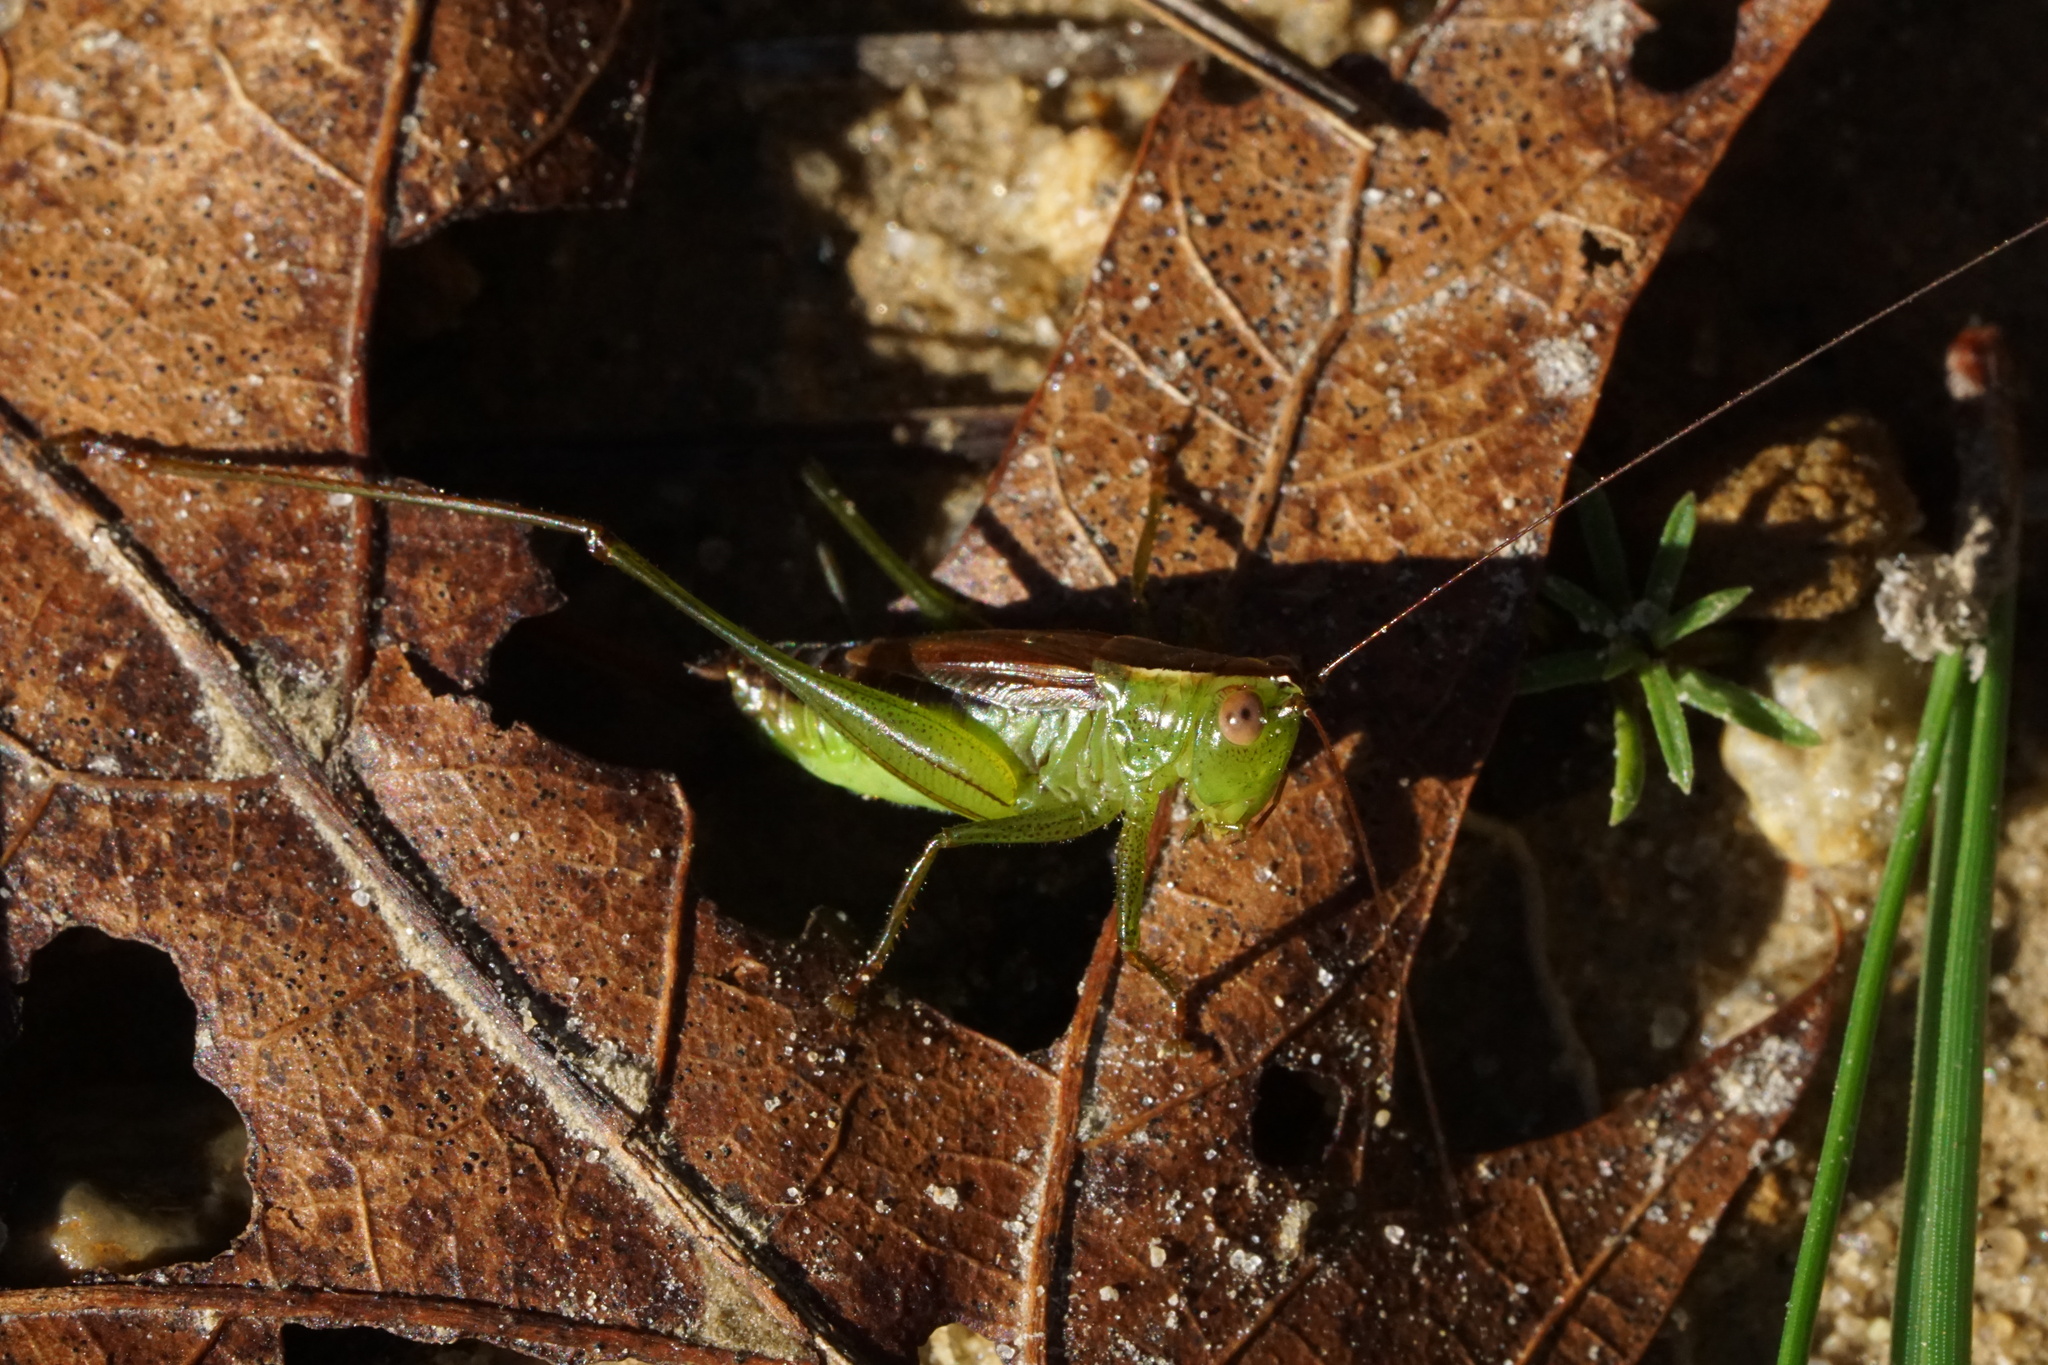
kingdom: Animalia
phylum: Arthropoda
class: Insecta
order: Orthoptera
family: Tettigoniidae
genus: Conocephalus
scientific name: Conocephalus brevipennis
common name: Short-winged meadow katydid
